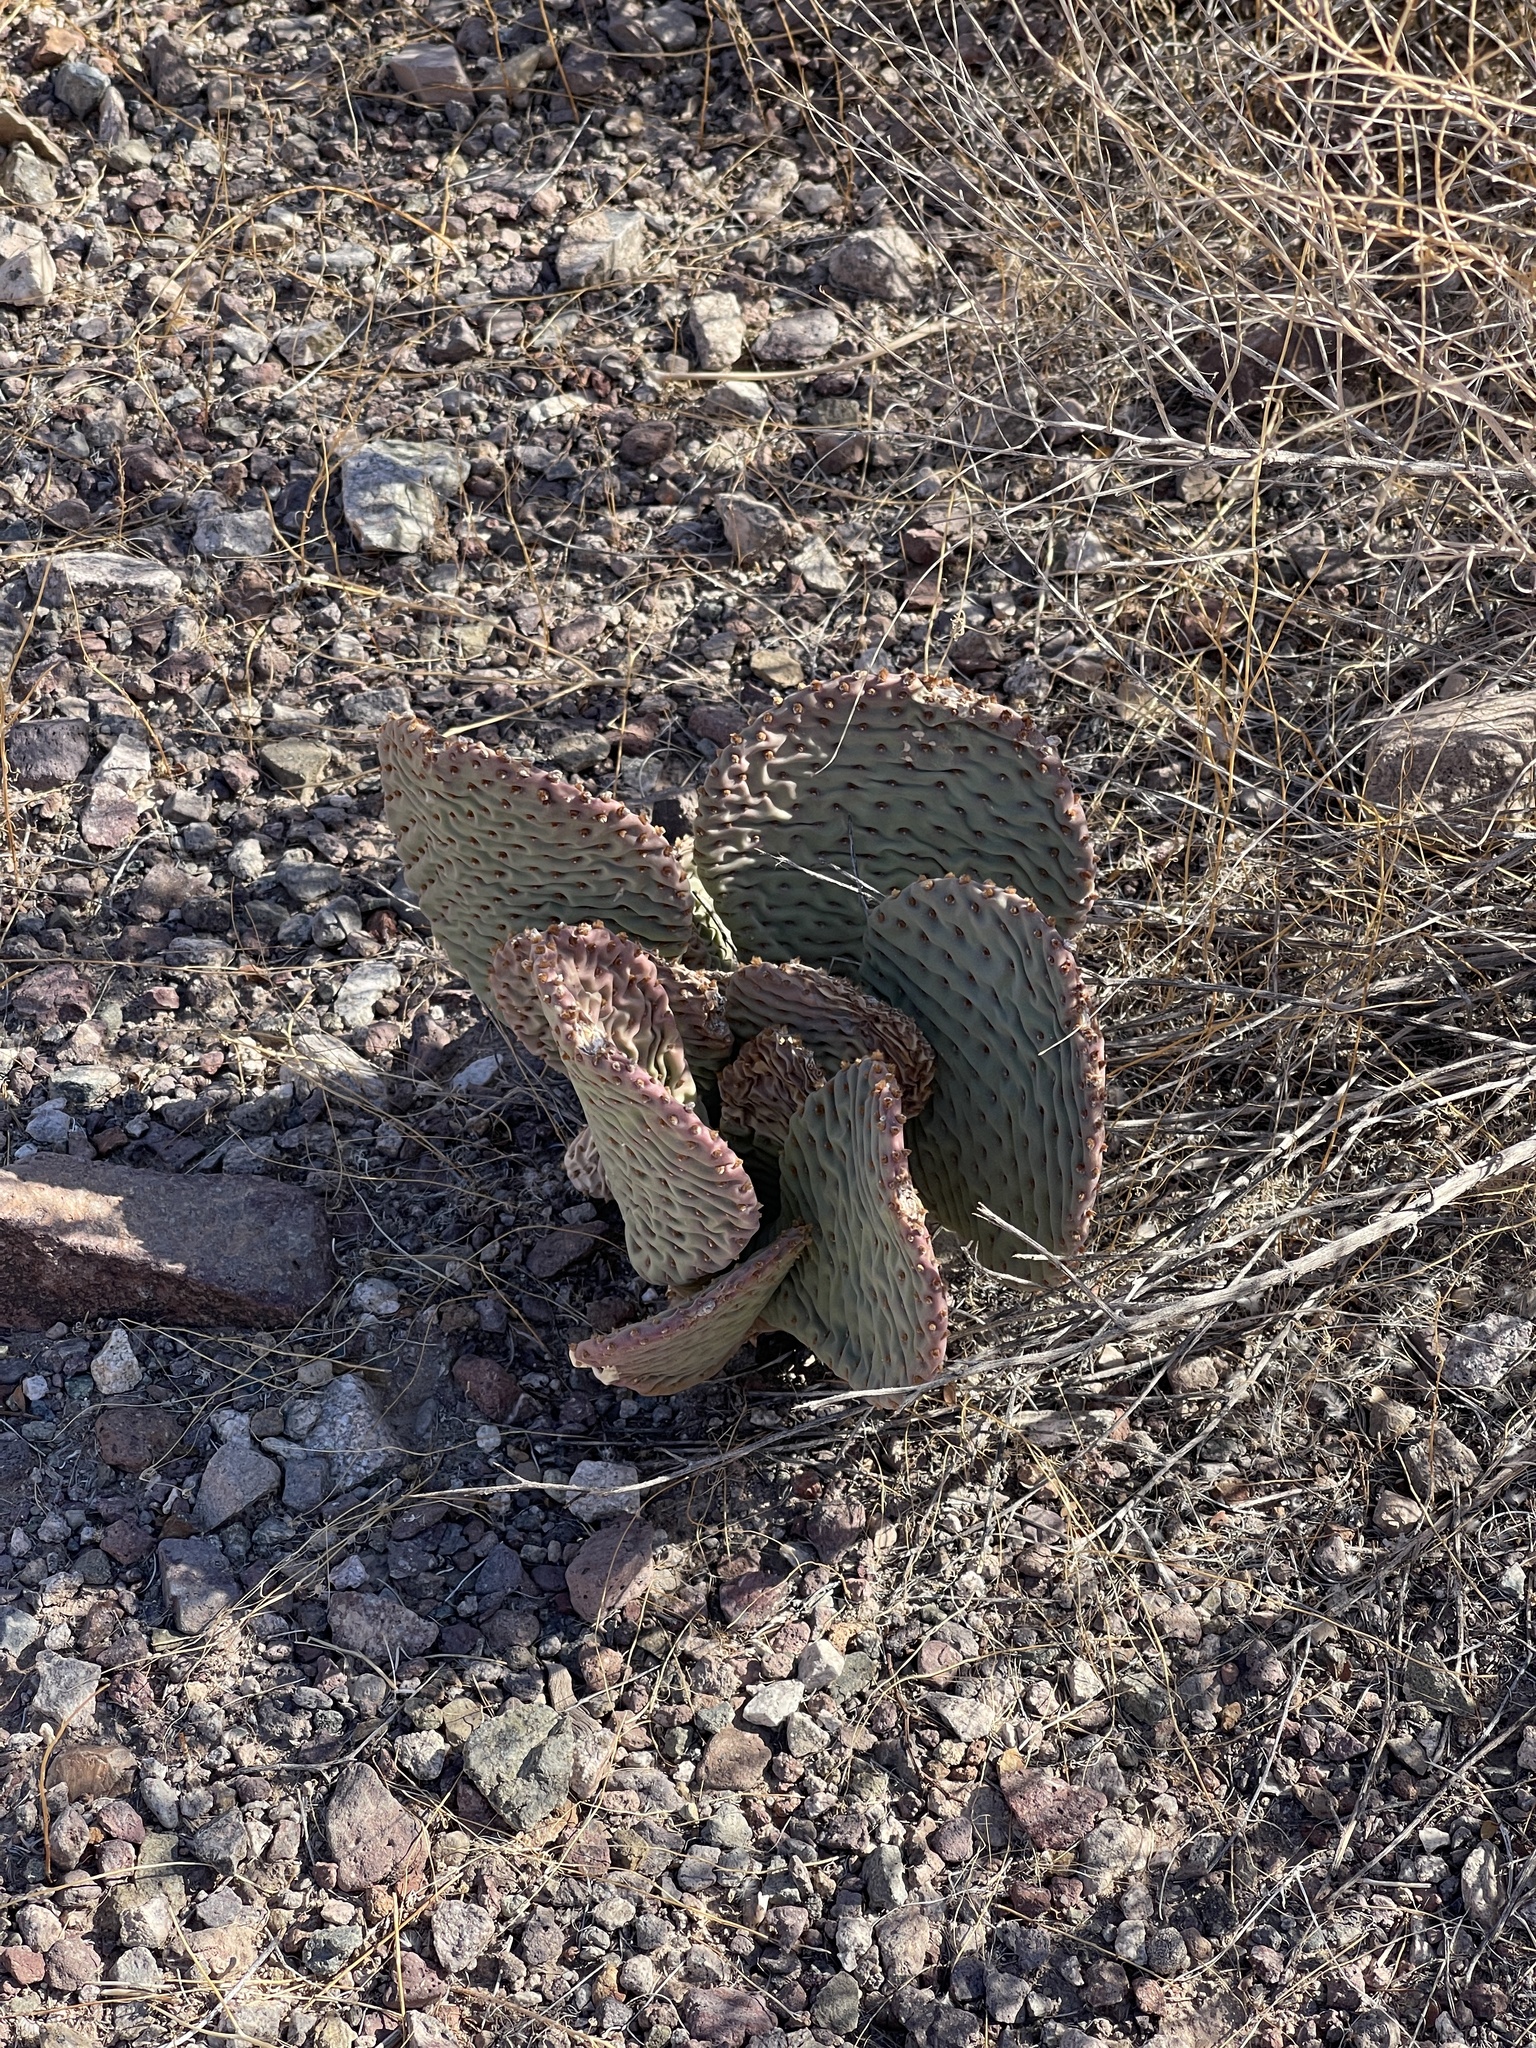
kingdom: Plantae
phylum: Tracheophyta
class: Magnoliopsida
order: Caryophyllales
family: Cactaceae
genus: Opuntia
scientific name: Opuntia basilaris
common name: Beavertail prickly-pear
